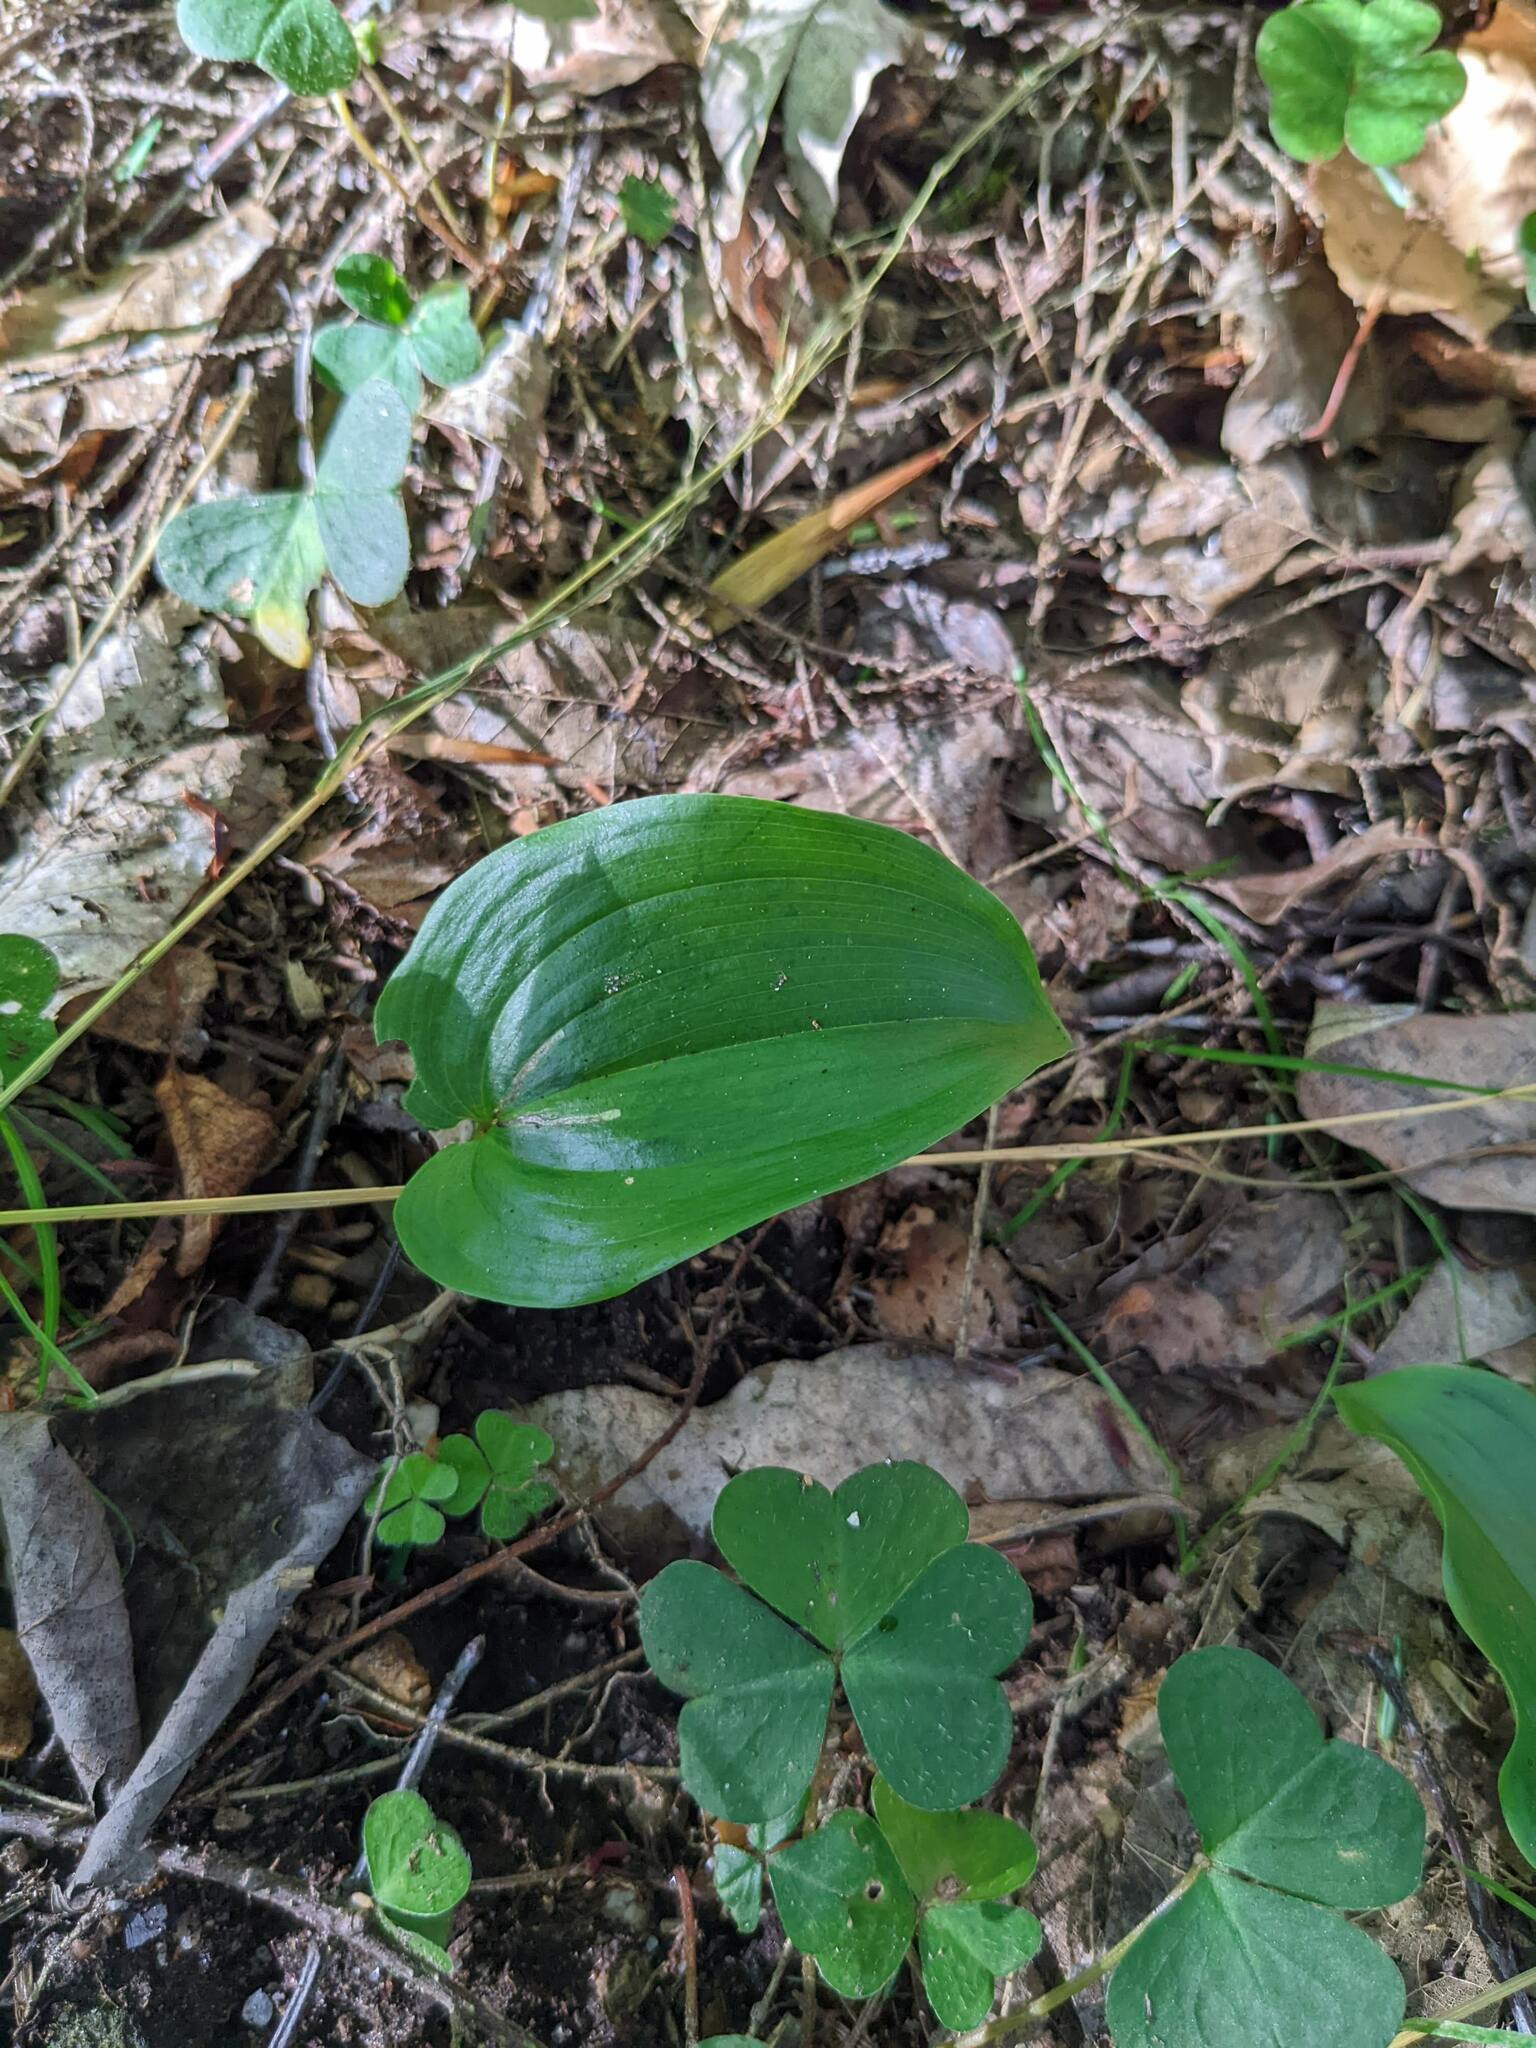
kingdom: Plantae
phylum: Tracheophyta
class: Liliopsida
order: Asparagales
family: Asparagaceae
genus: Maianthemum
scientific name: Maianthemum canadense
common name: False lily-of-the-valley
